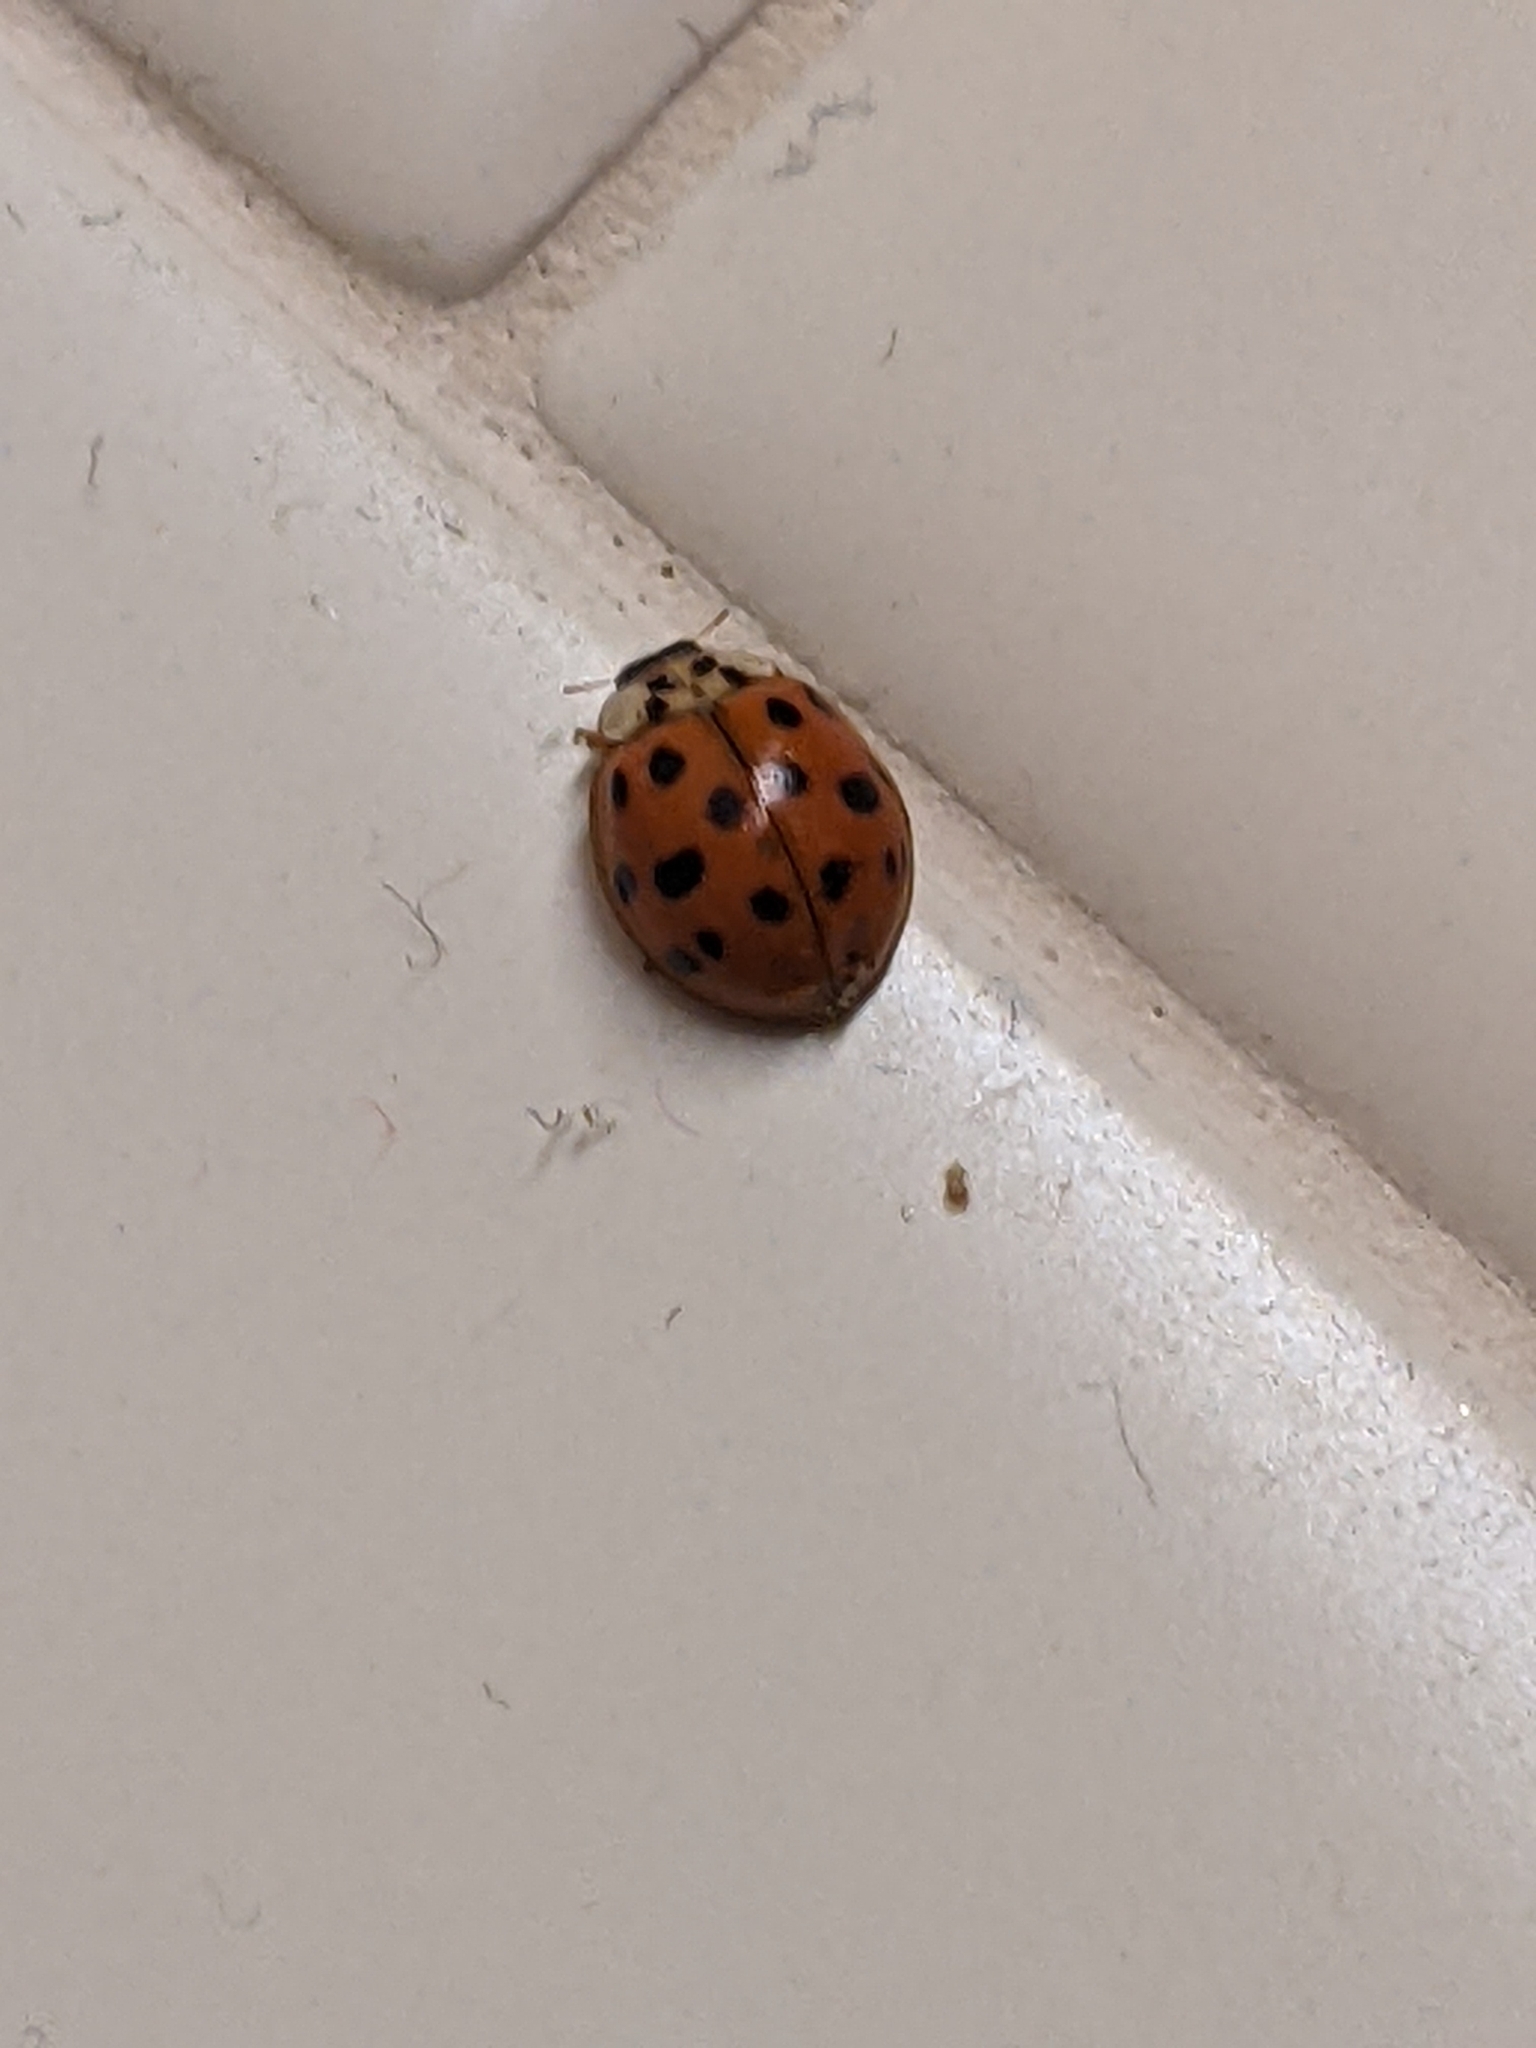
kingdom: Animalia
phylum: Arthropoda
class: Insecta
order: Coleoptera
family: Coccinellidae
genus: Harmonia
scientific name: Harmonia axyridis
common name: Harlequin ladybird
